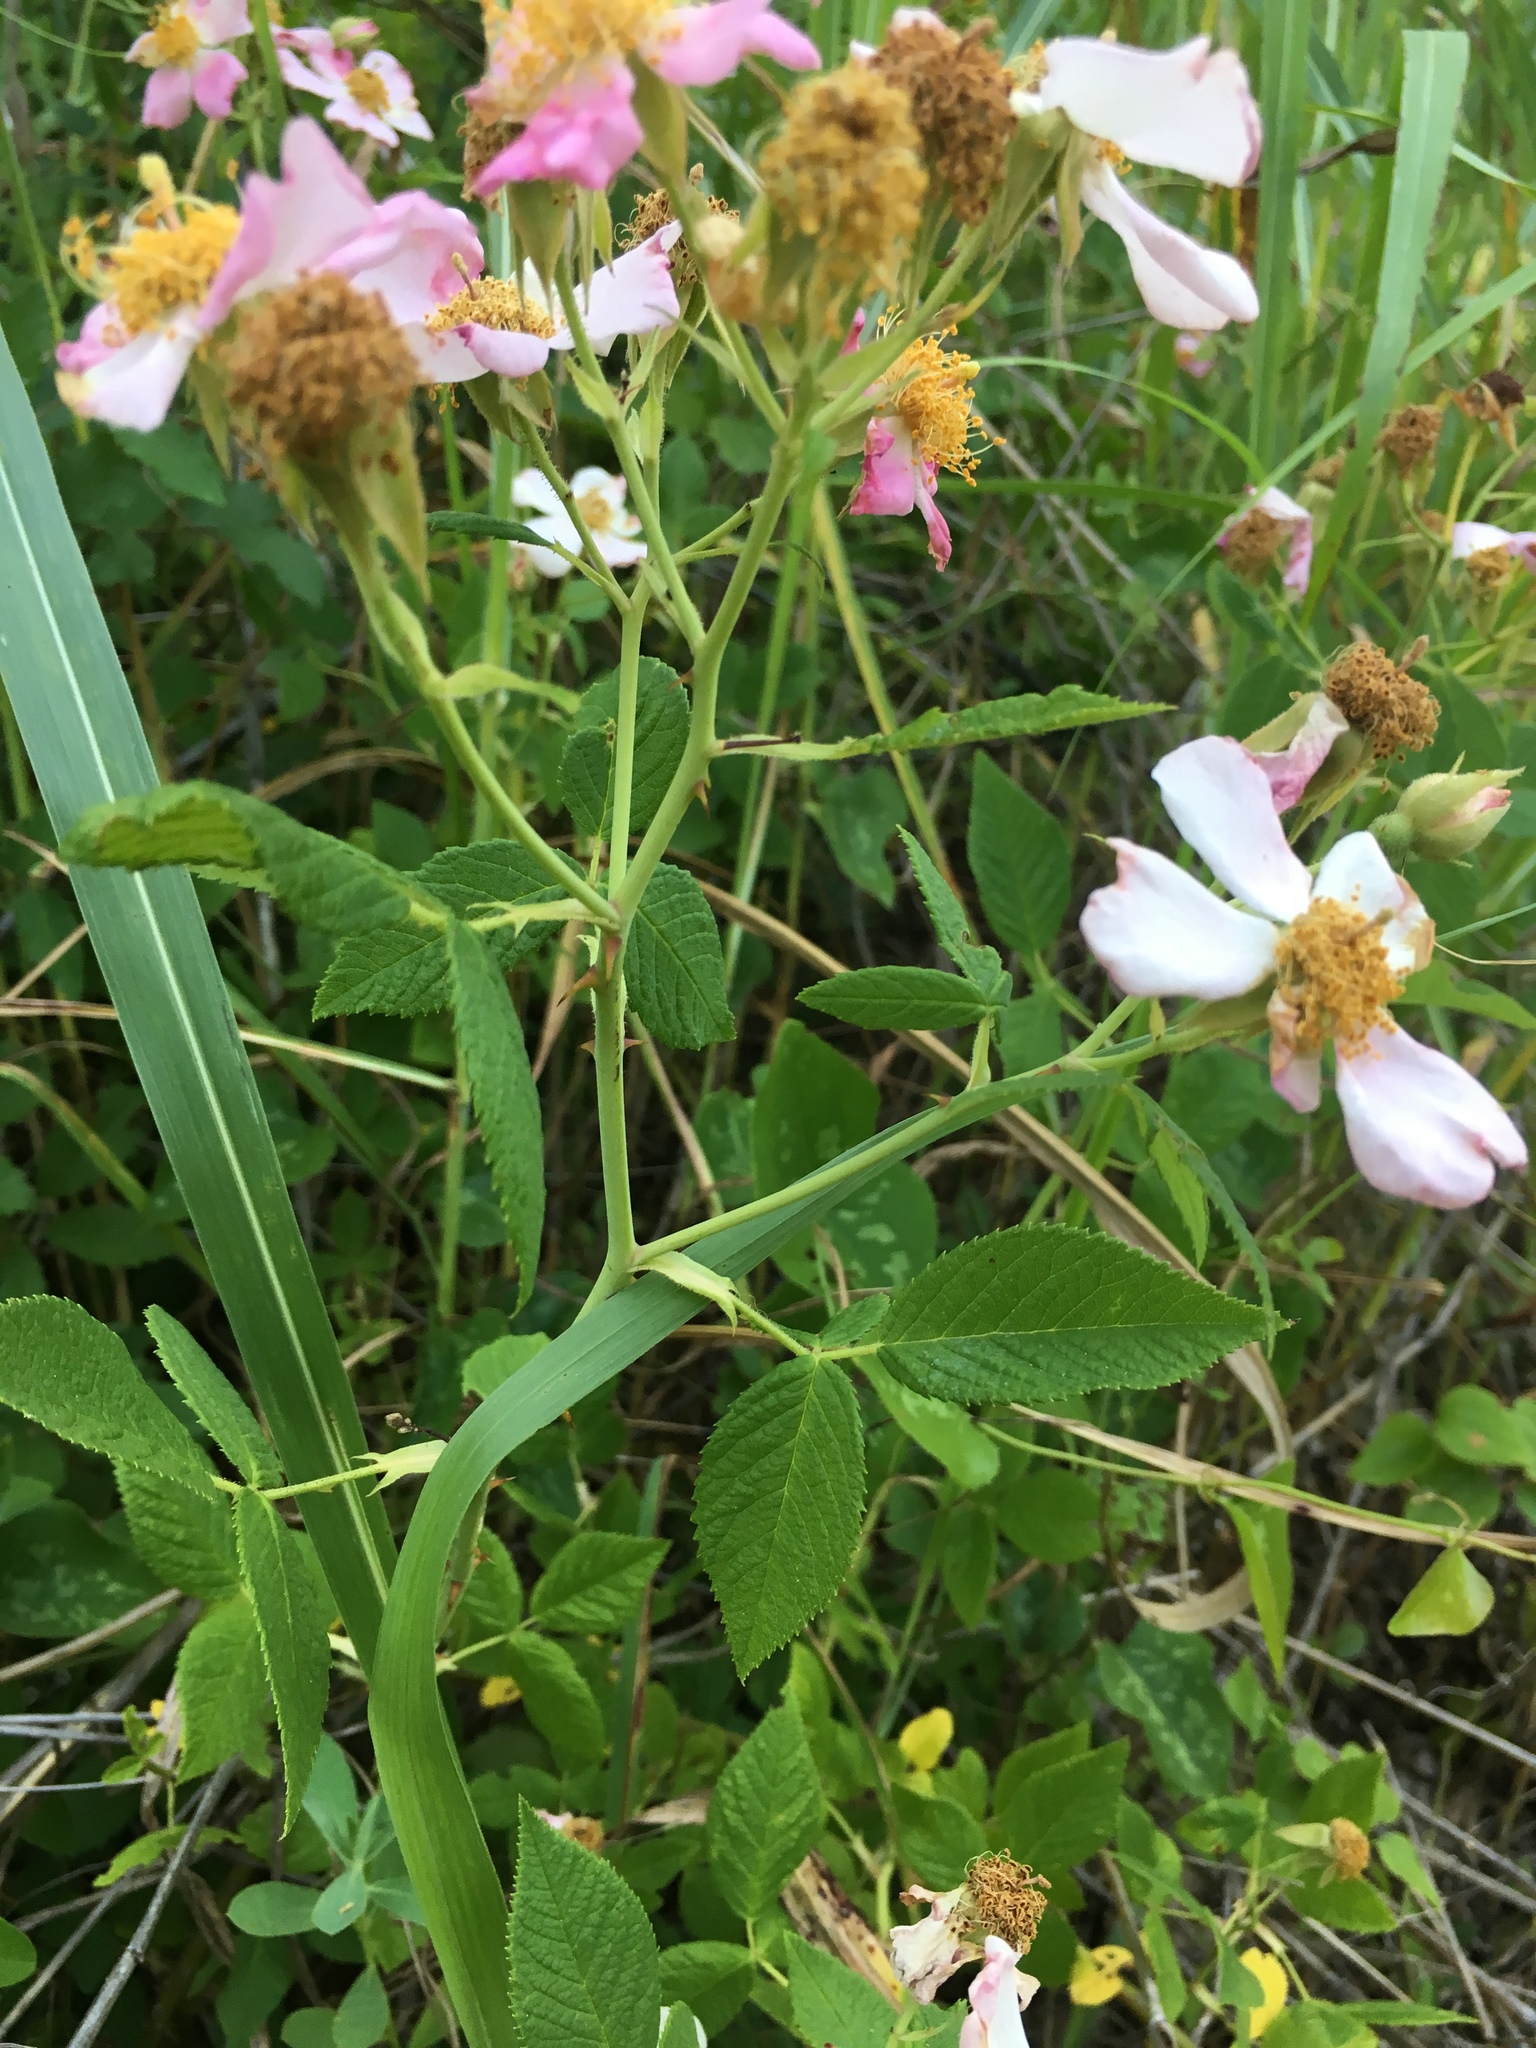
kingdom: Plantae
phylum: Tracheophyta
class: Magnoliopsida
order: Rosales
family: Rosaceae
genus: Rosa
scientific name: Rosa setigera
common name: Prairie rose
